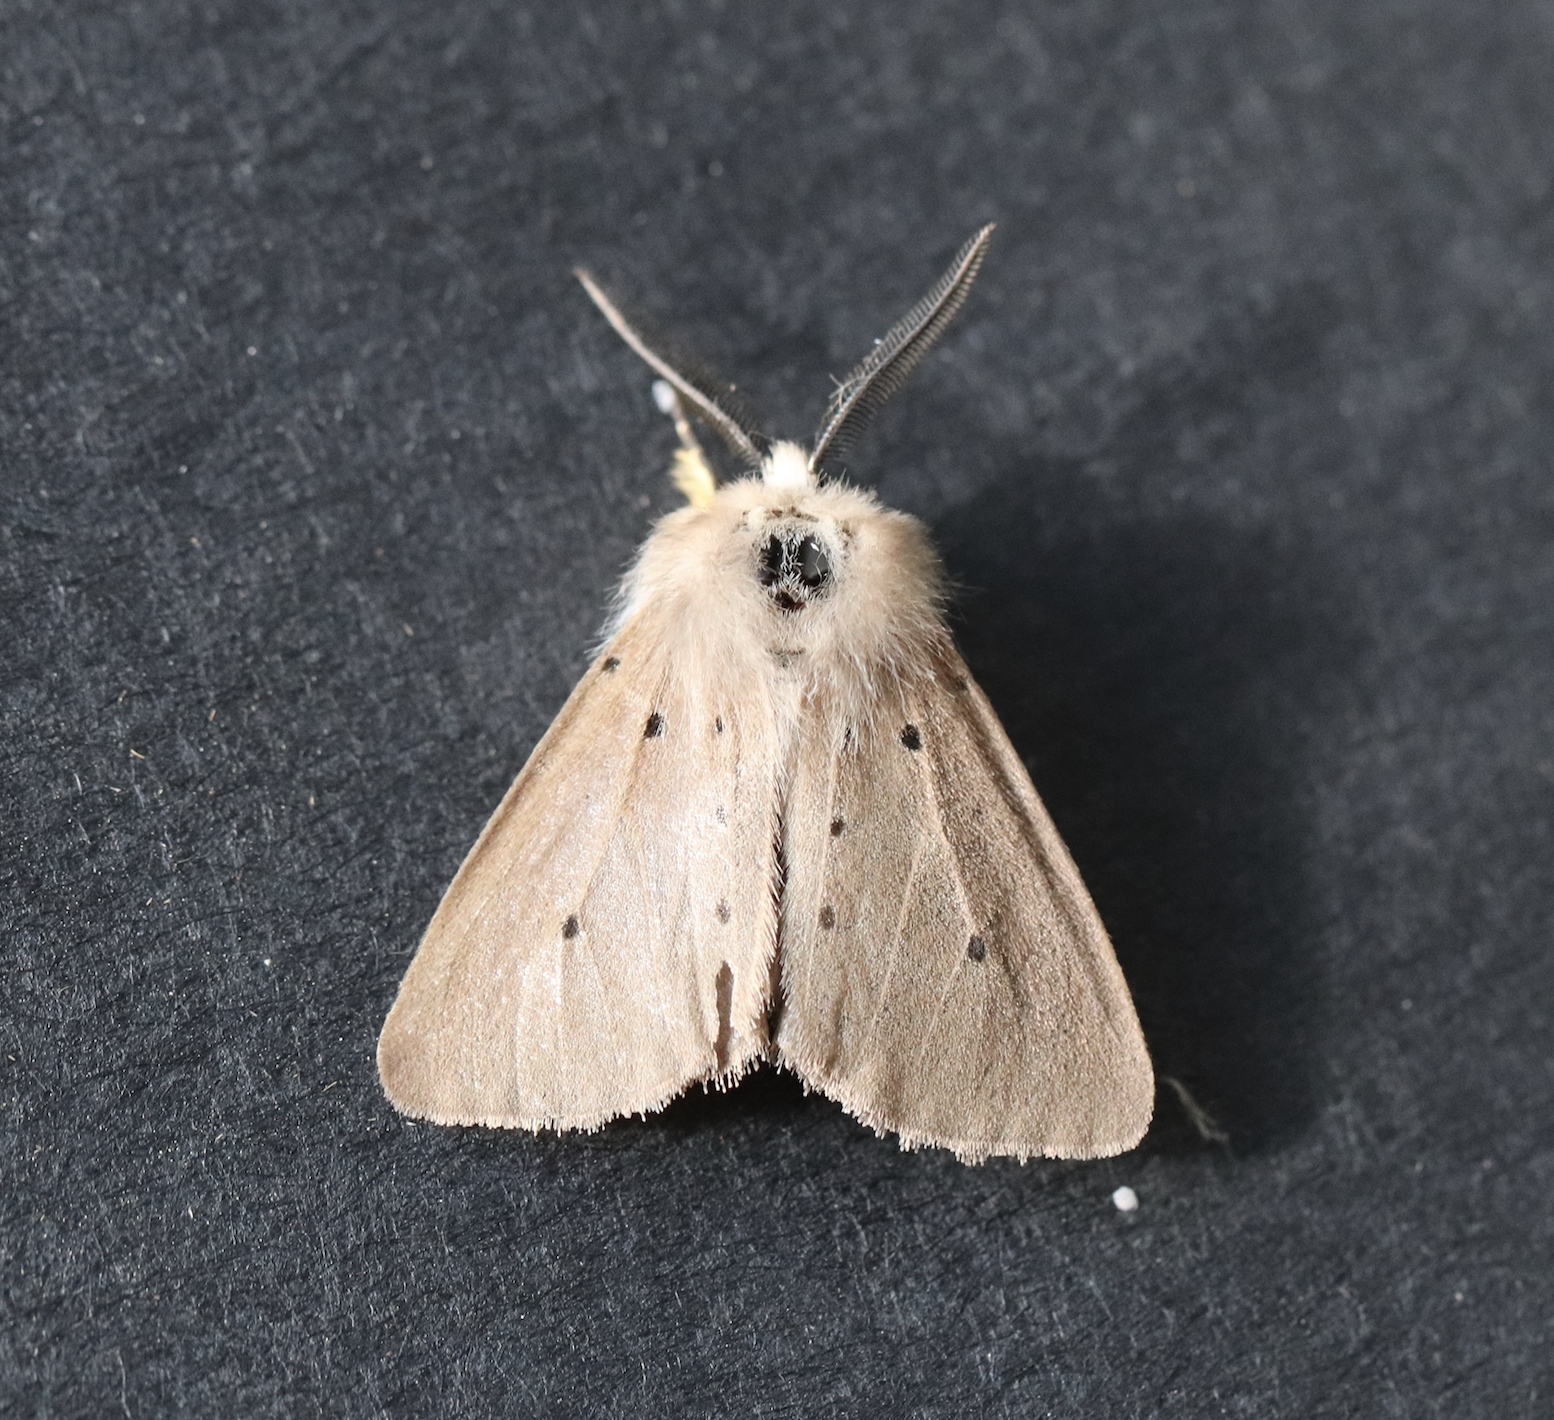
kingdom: Animalia
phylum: Arthropoda
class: Insecta
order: Lepidoptera
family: Erebidae
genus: Diaphora
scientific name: Diaphora mendica
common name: Muslin moth
